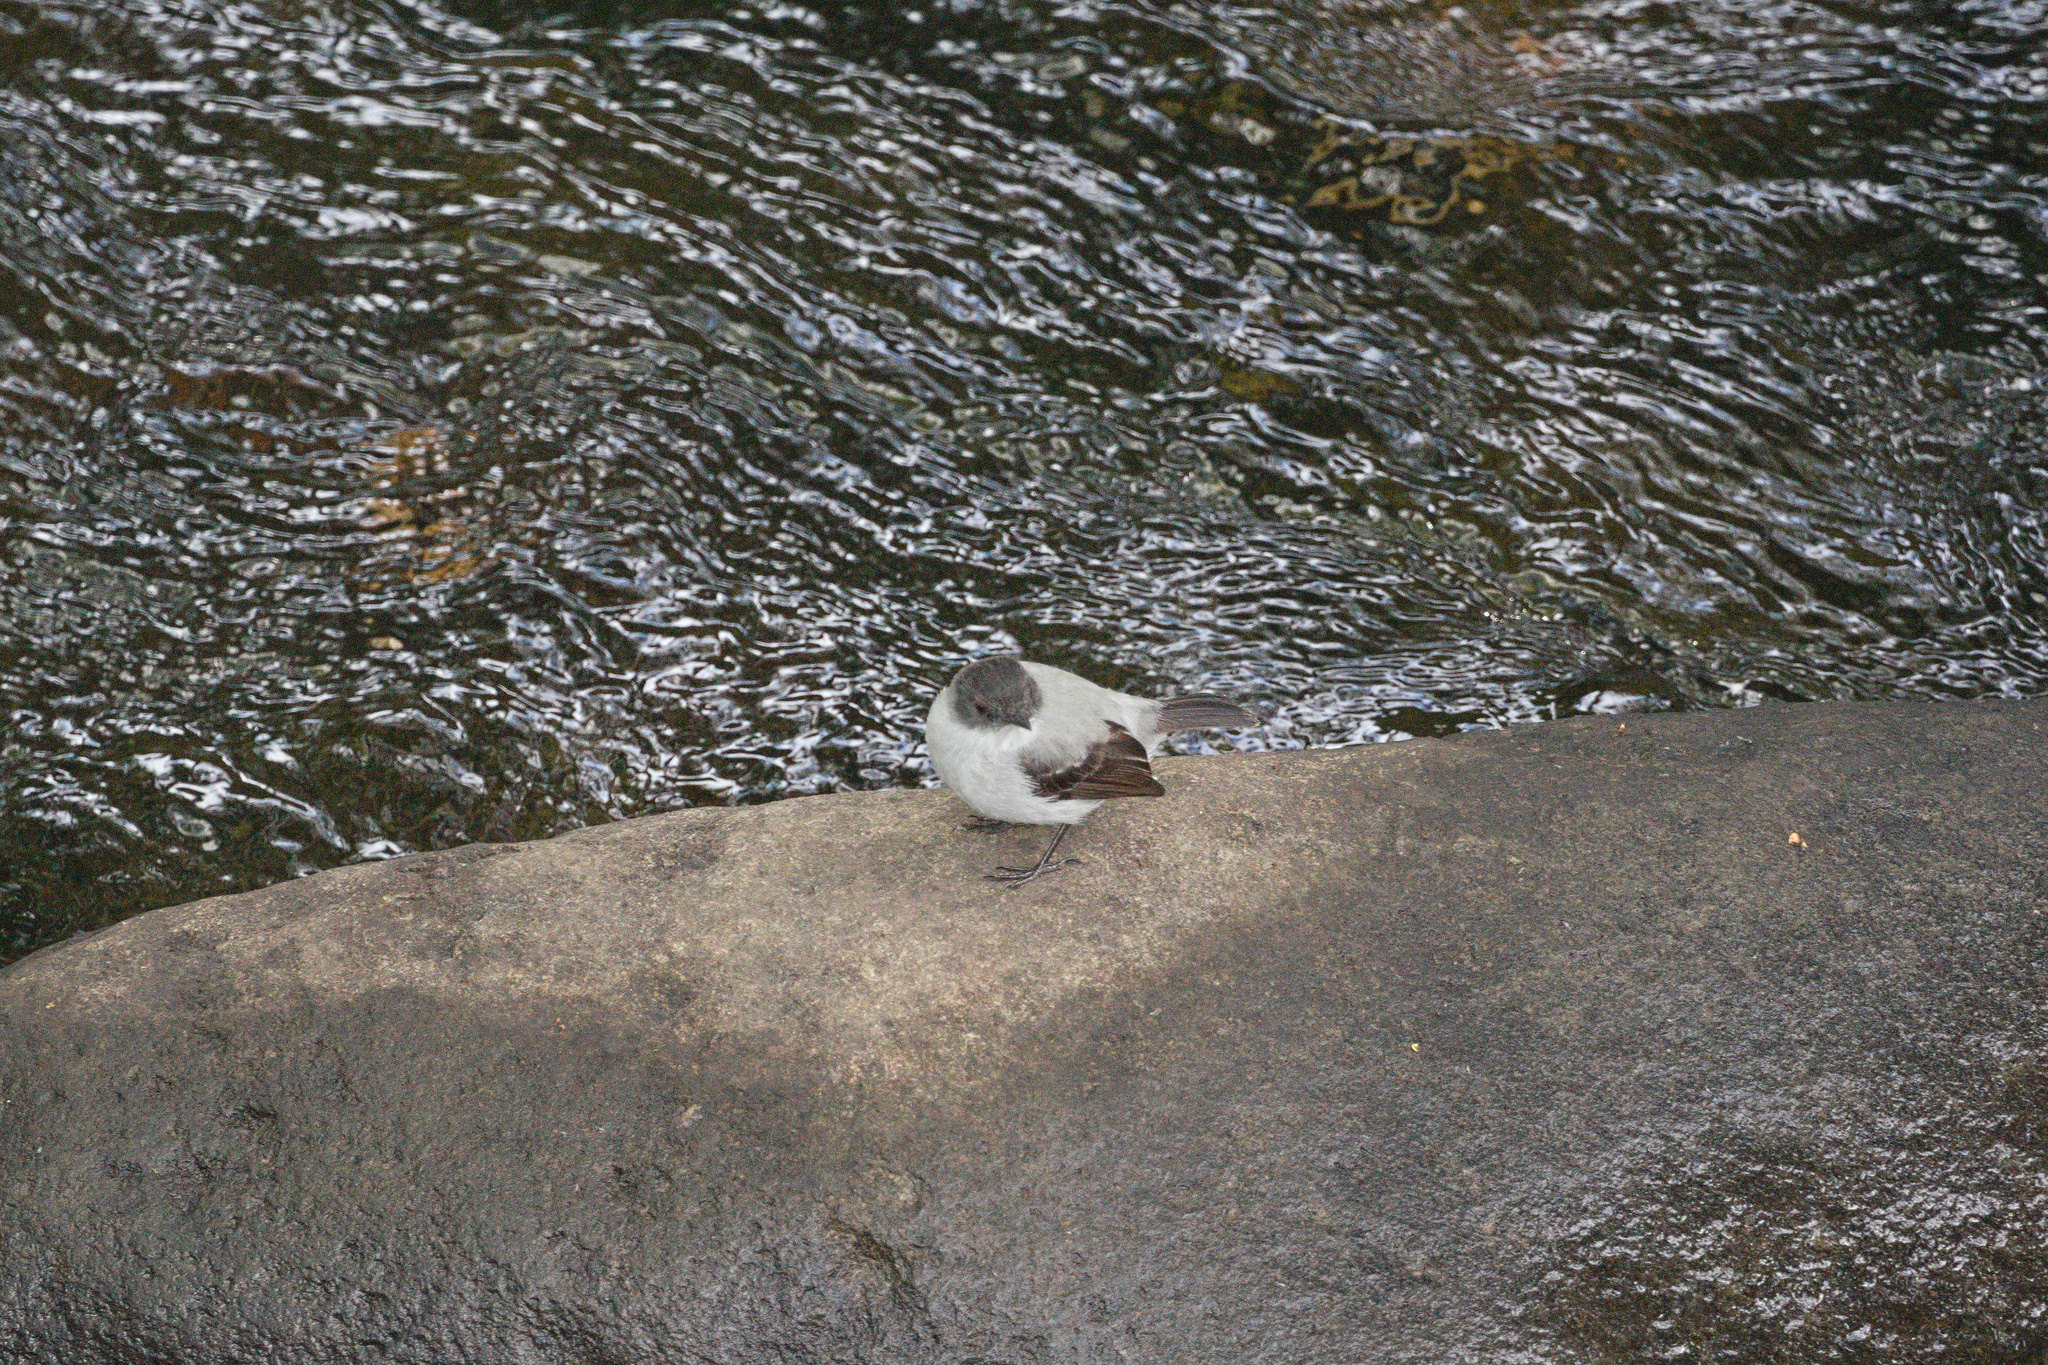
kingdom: Animalia
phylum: Chordata
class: Aves
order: Passeriformes
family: Tyrannidae
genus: Serpophaga
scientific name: Serpophaga cinerea
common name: Torrent tyrannulet
